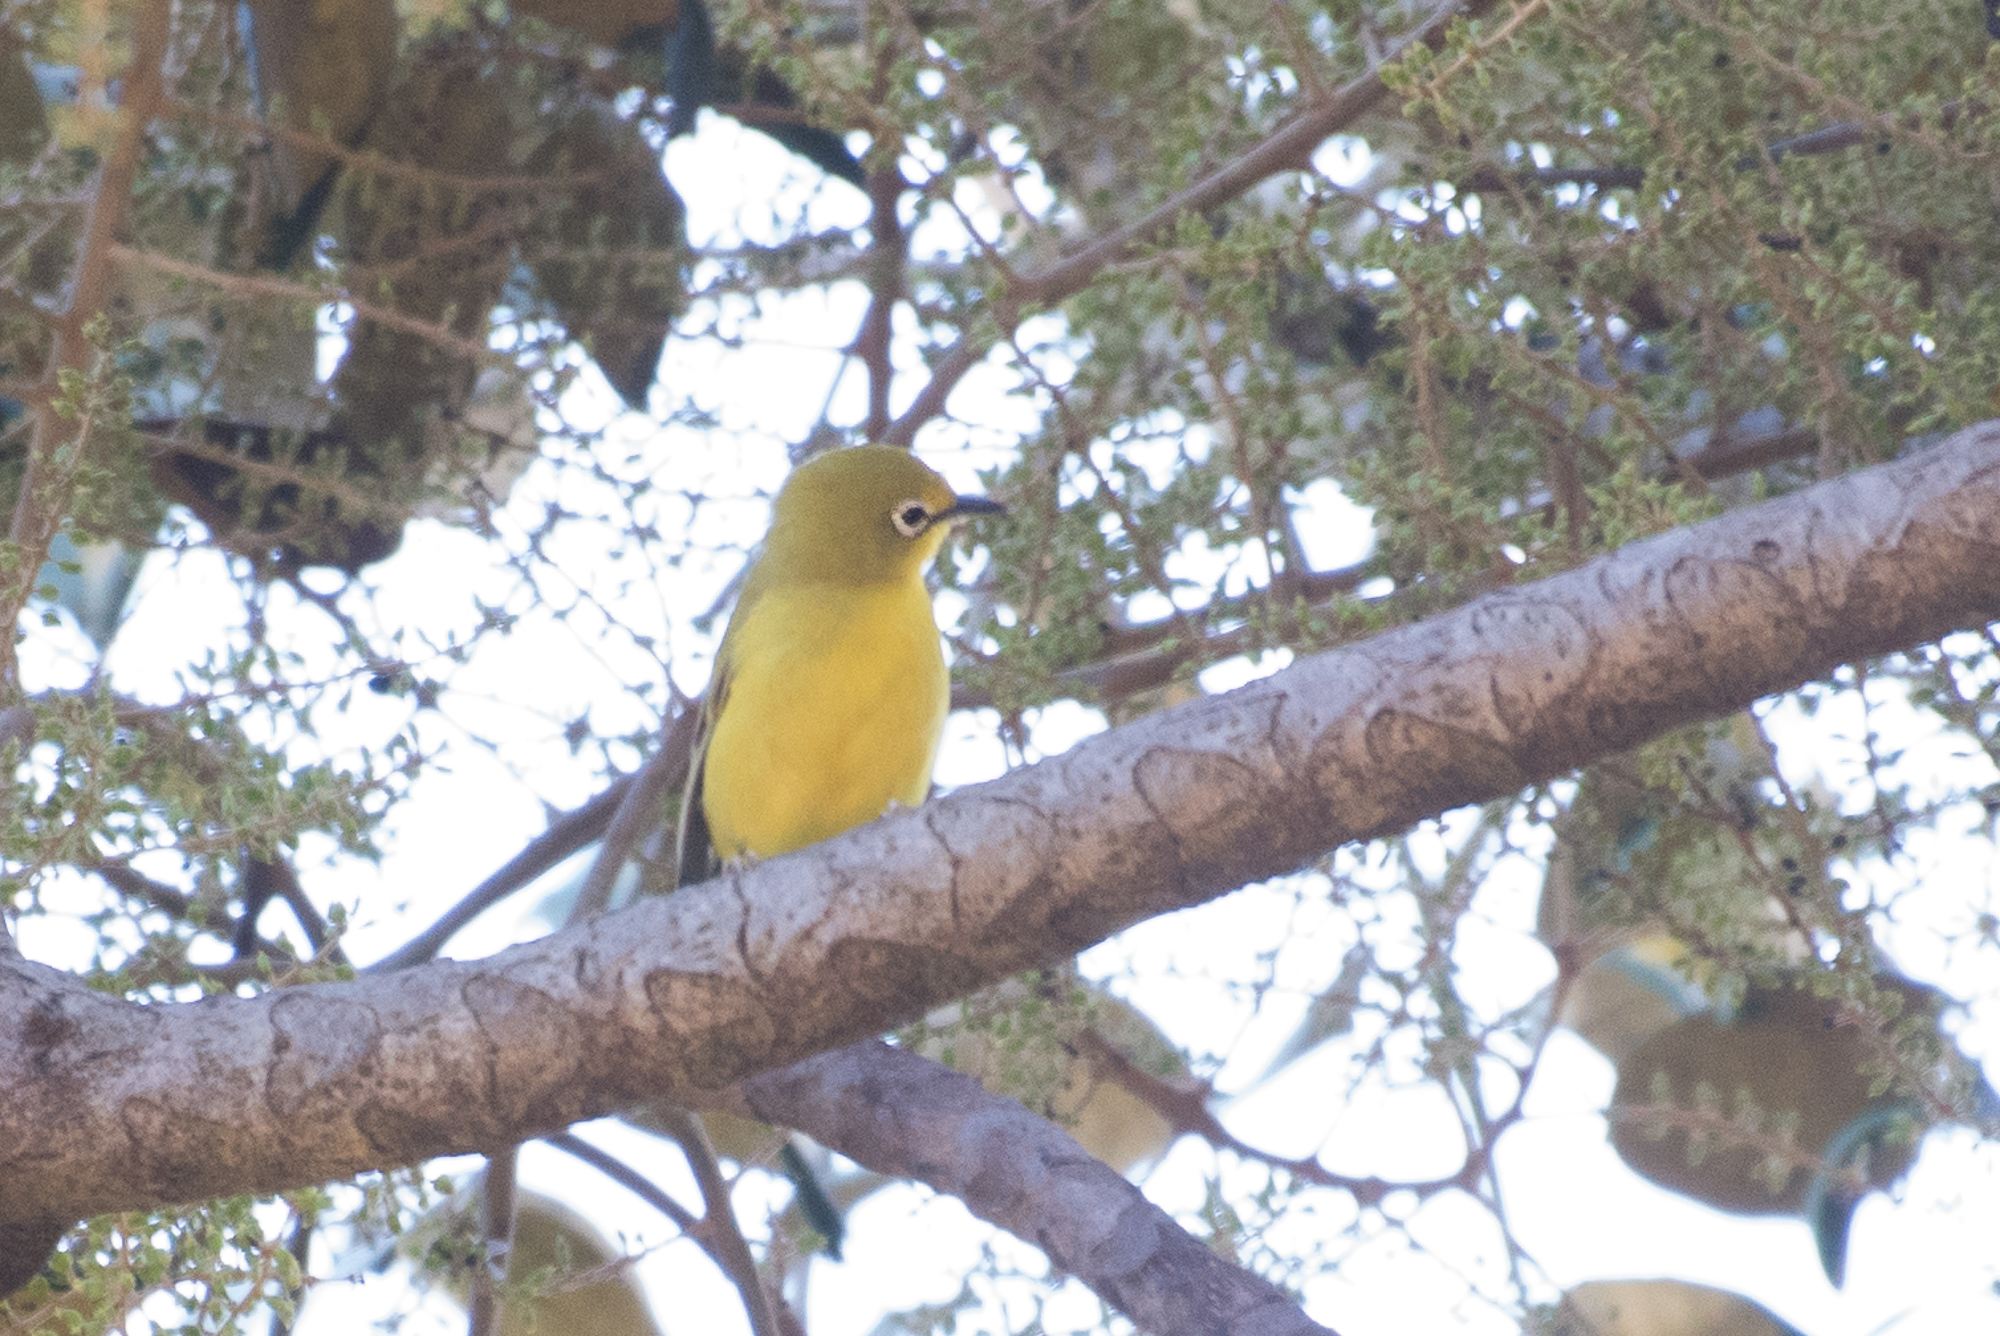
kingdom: Animalia
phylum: Chordata
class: Aves
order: Passeriformes
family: Zosteropidae
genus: Zosterops
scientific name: Zosterops anderssoni
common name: Southern yellow white-eye
